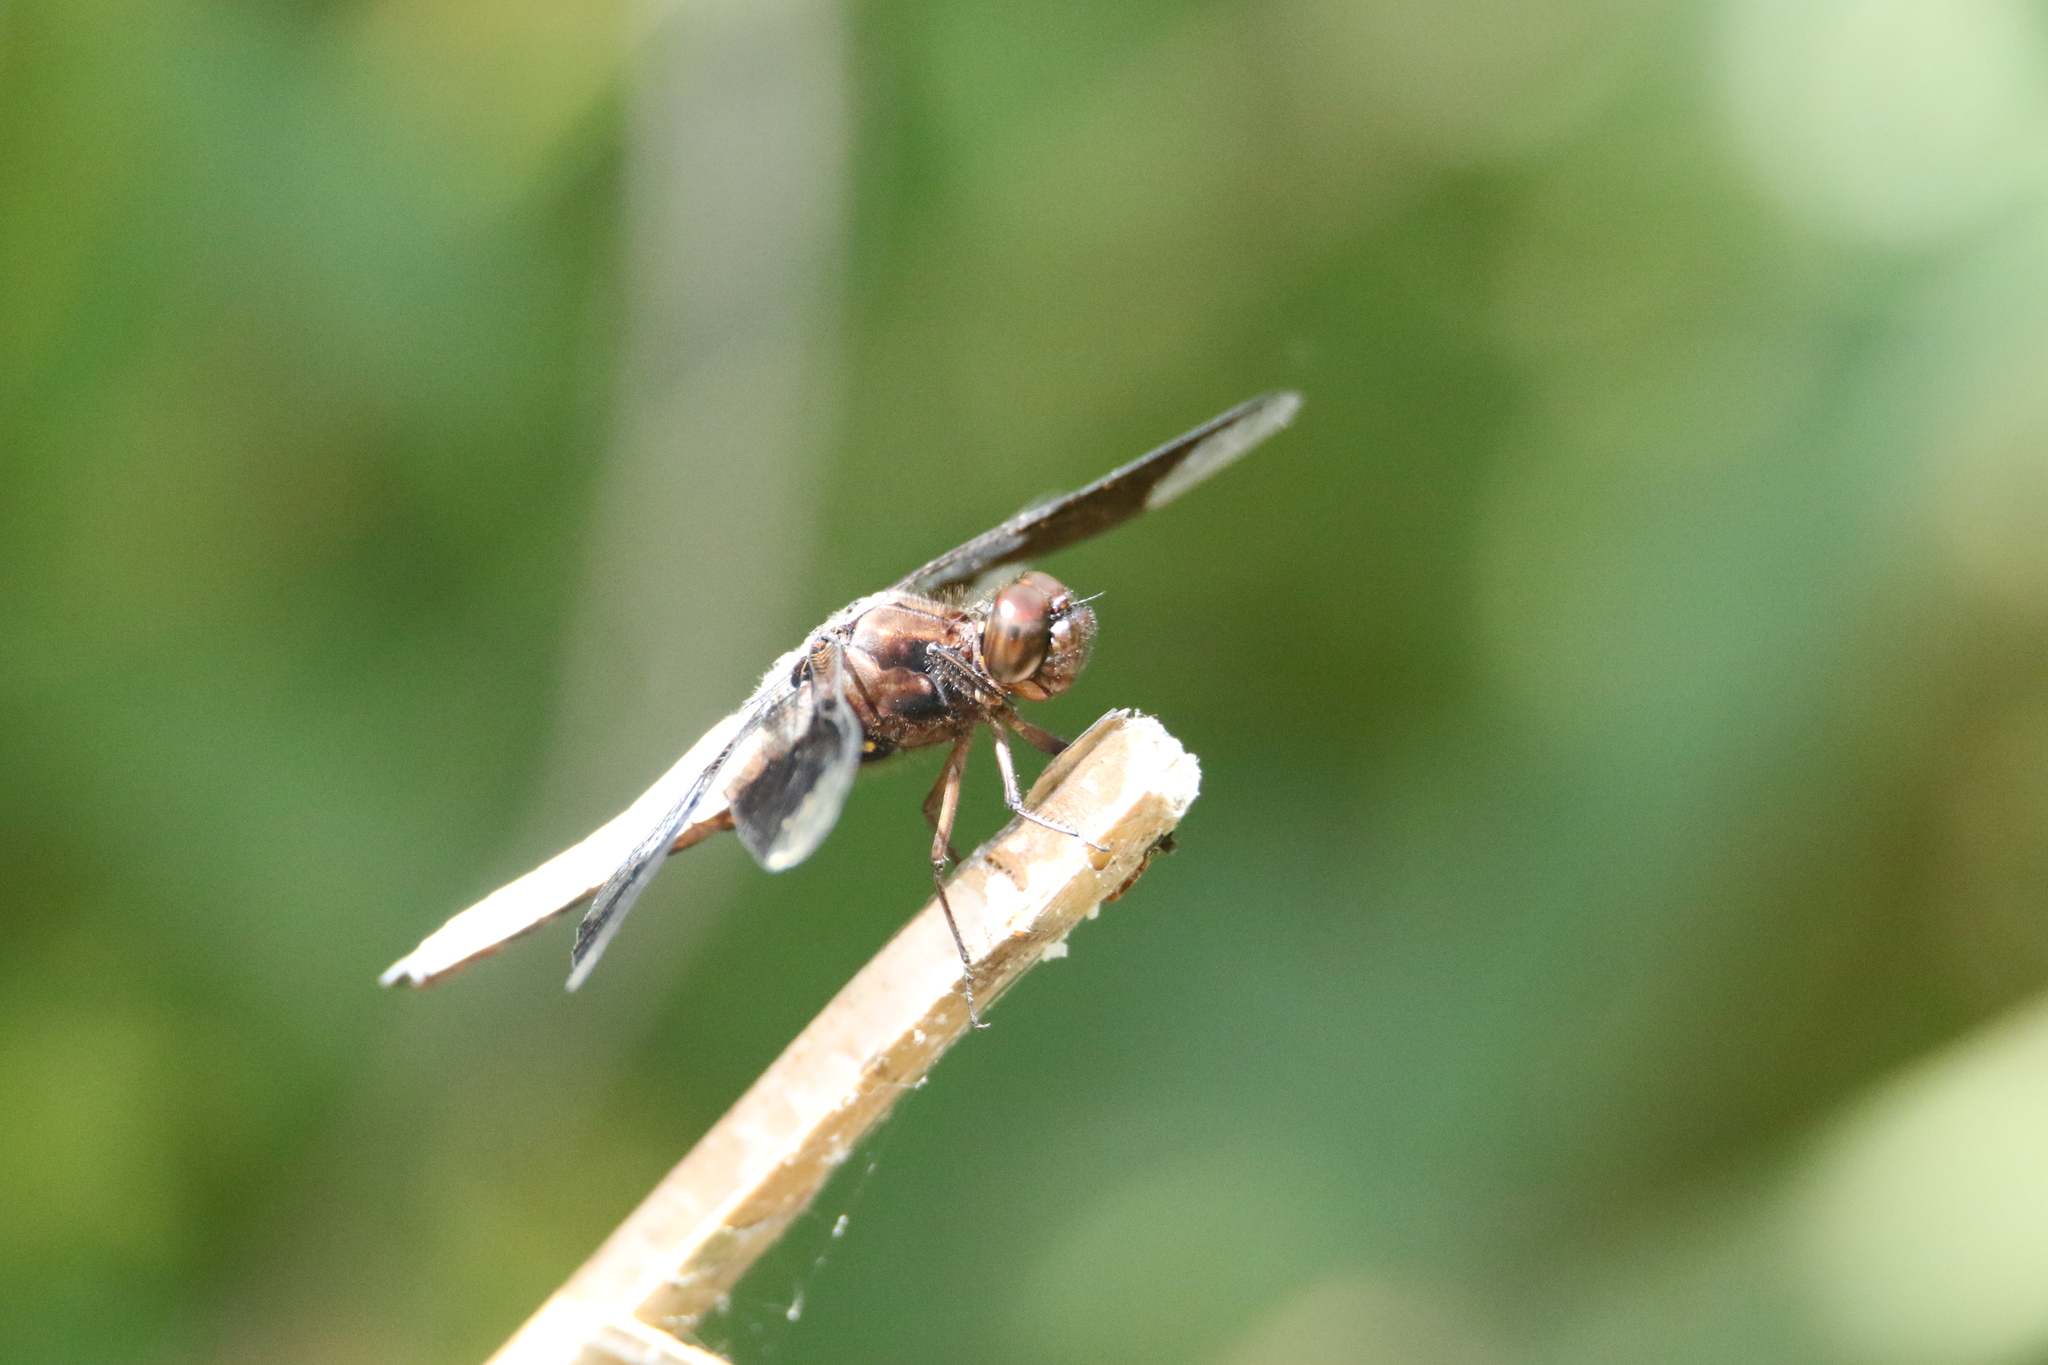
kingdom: Animalia
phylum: Arthropoda
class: Insecta
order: Odonata
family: Libellulidae
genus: Plathemis
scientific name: Plathemis lydia
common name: Common whitetail
